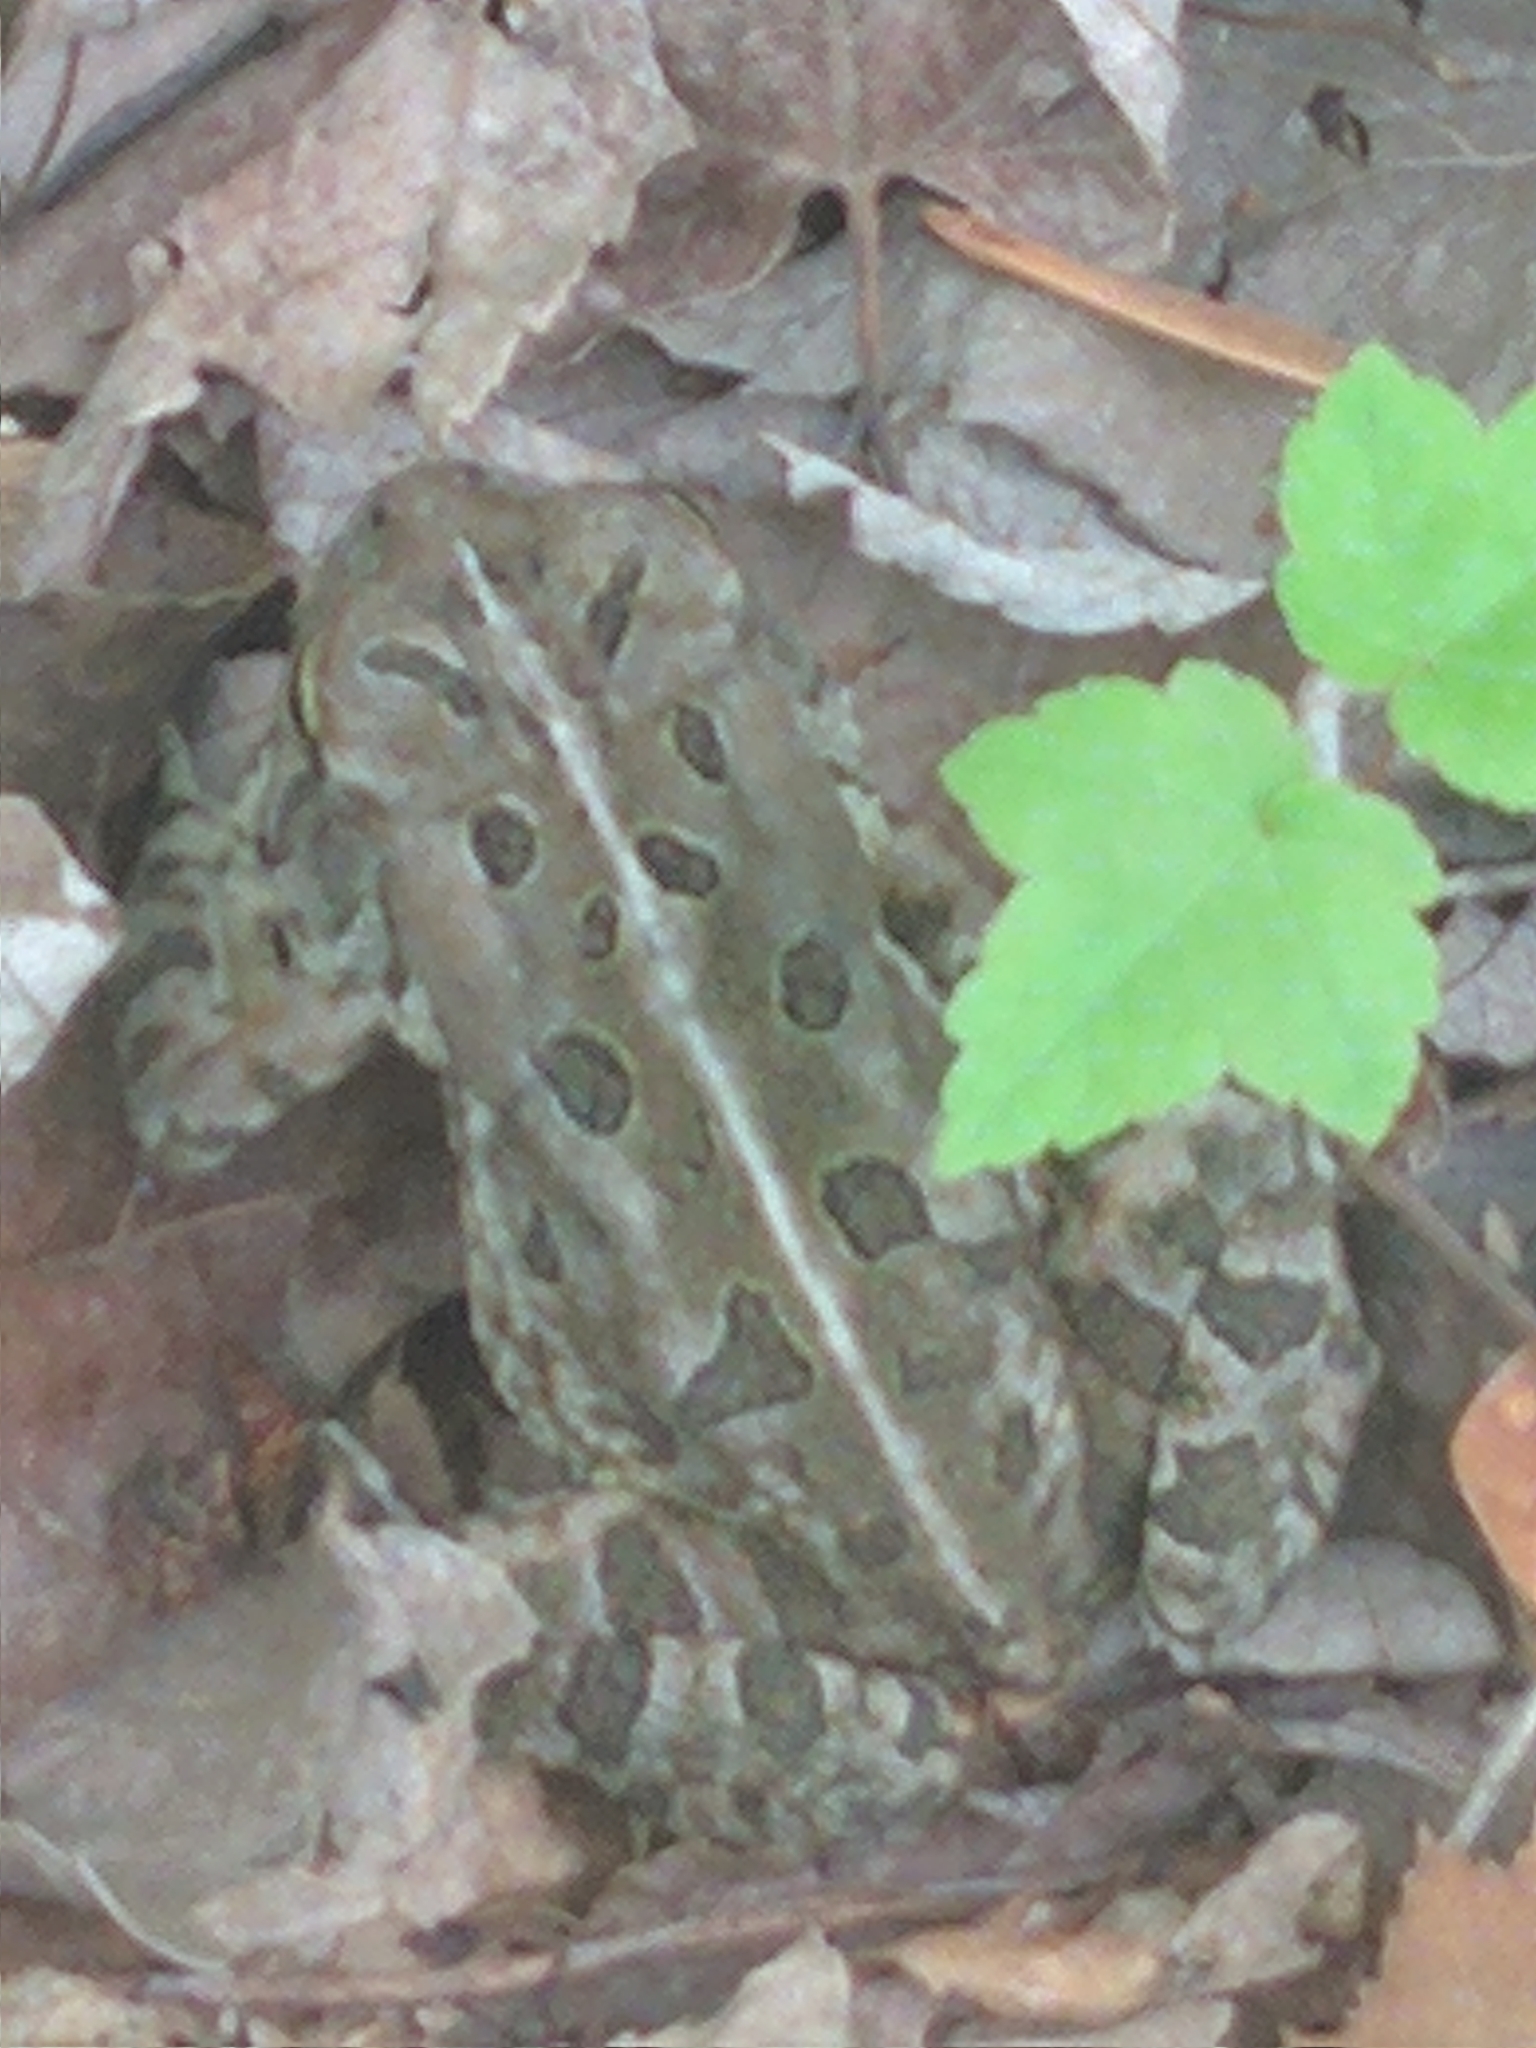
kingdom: Animalia
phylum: Chordata
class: Amphibia
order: Anura
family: Bufonidae
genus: Anaxyrus
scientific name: Anaxyrus fowleri
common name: Fowler's toad
